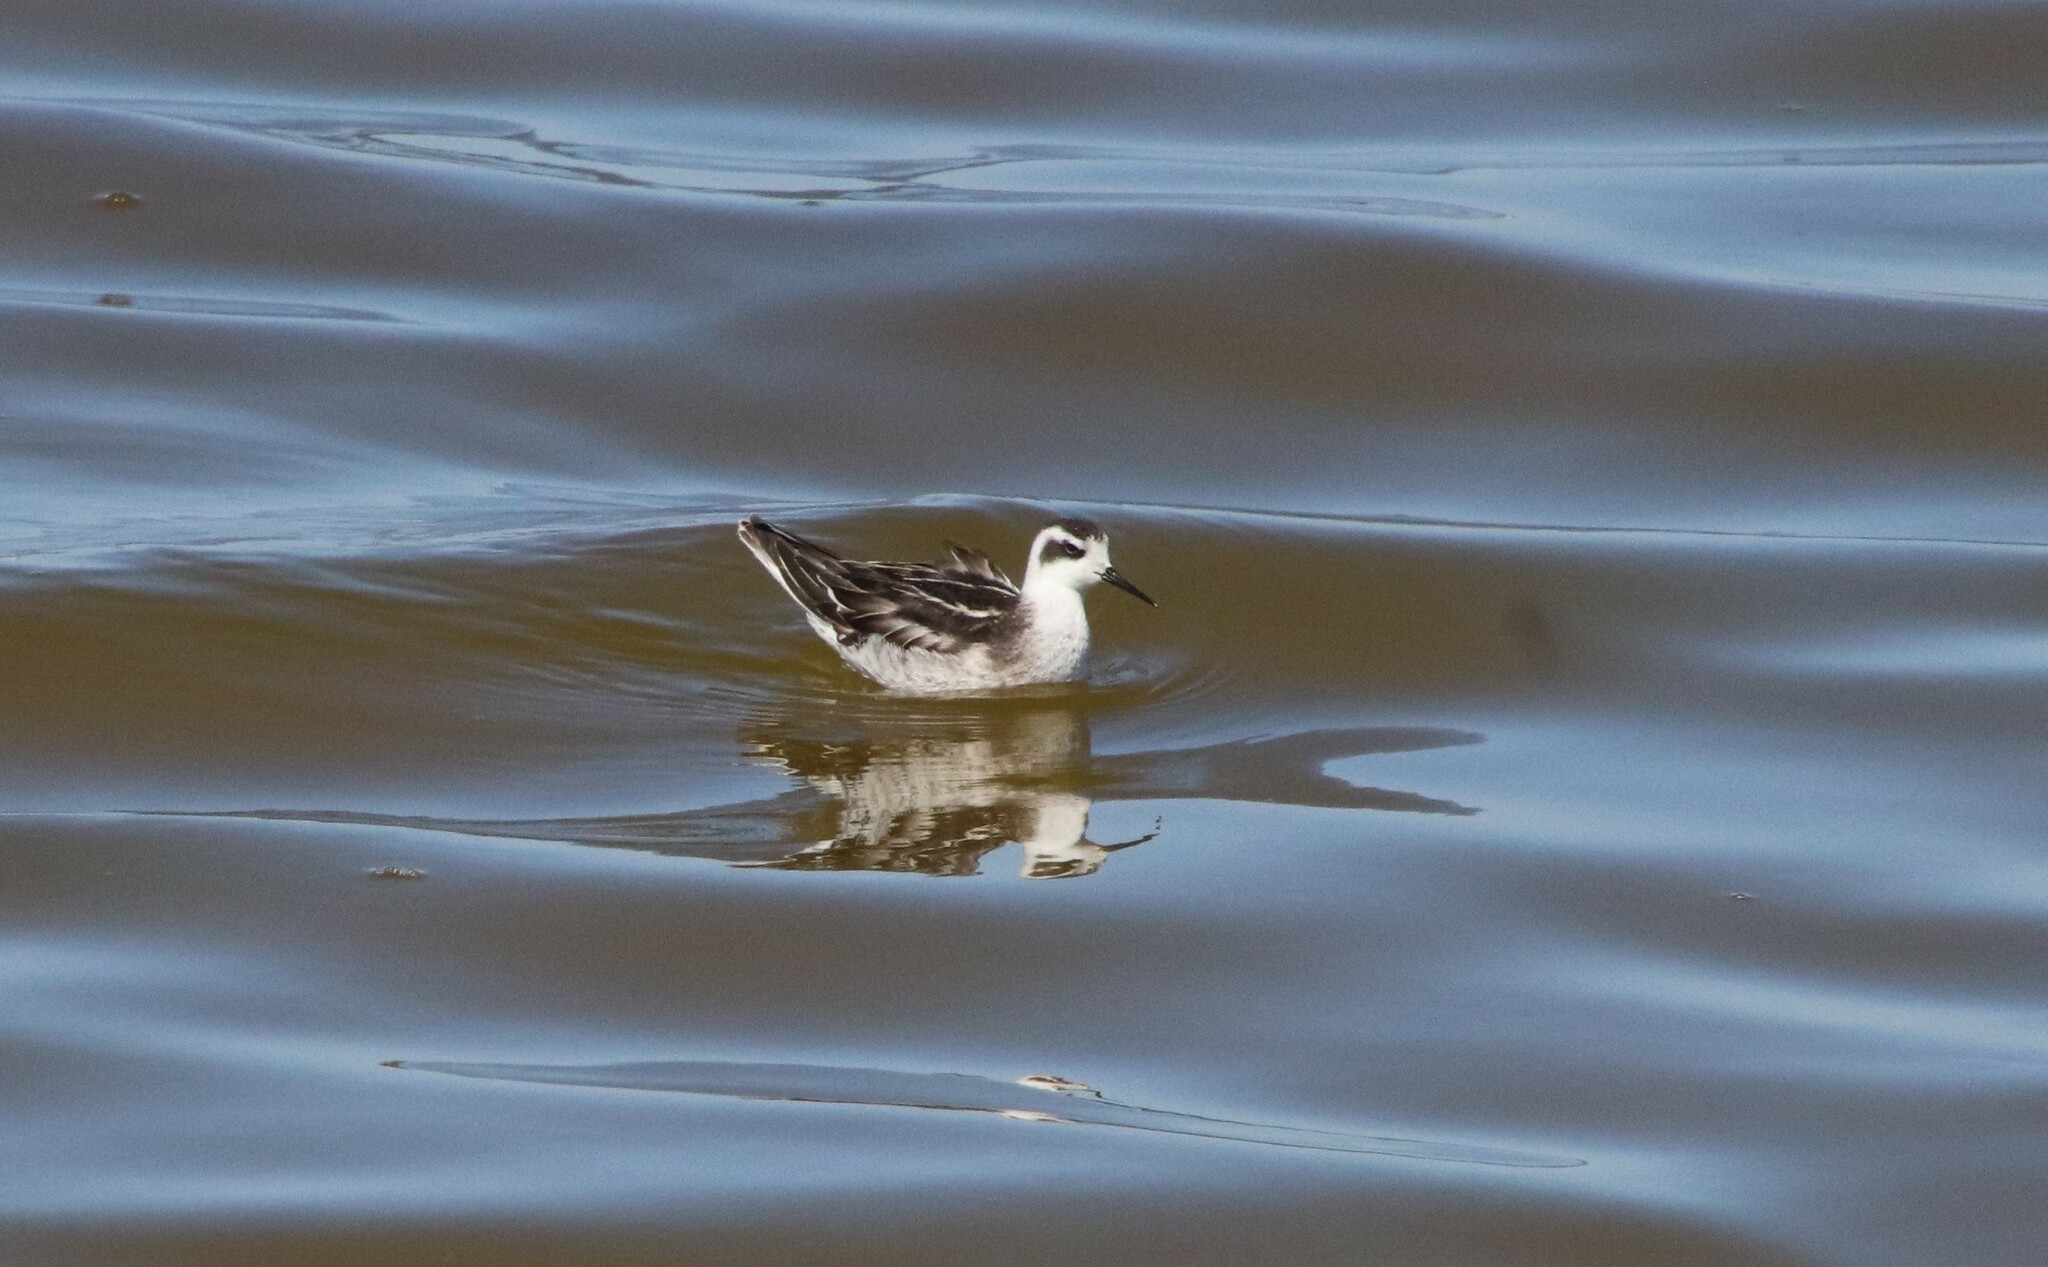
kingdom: Animalia
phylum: Chordata
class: Aves
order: Charadriiformes
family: Scolopacidae
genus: Phalaropus
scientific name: Phalaropus lobatus
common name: Red-necked phalarope
